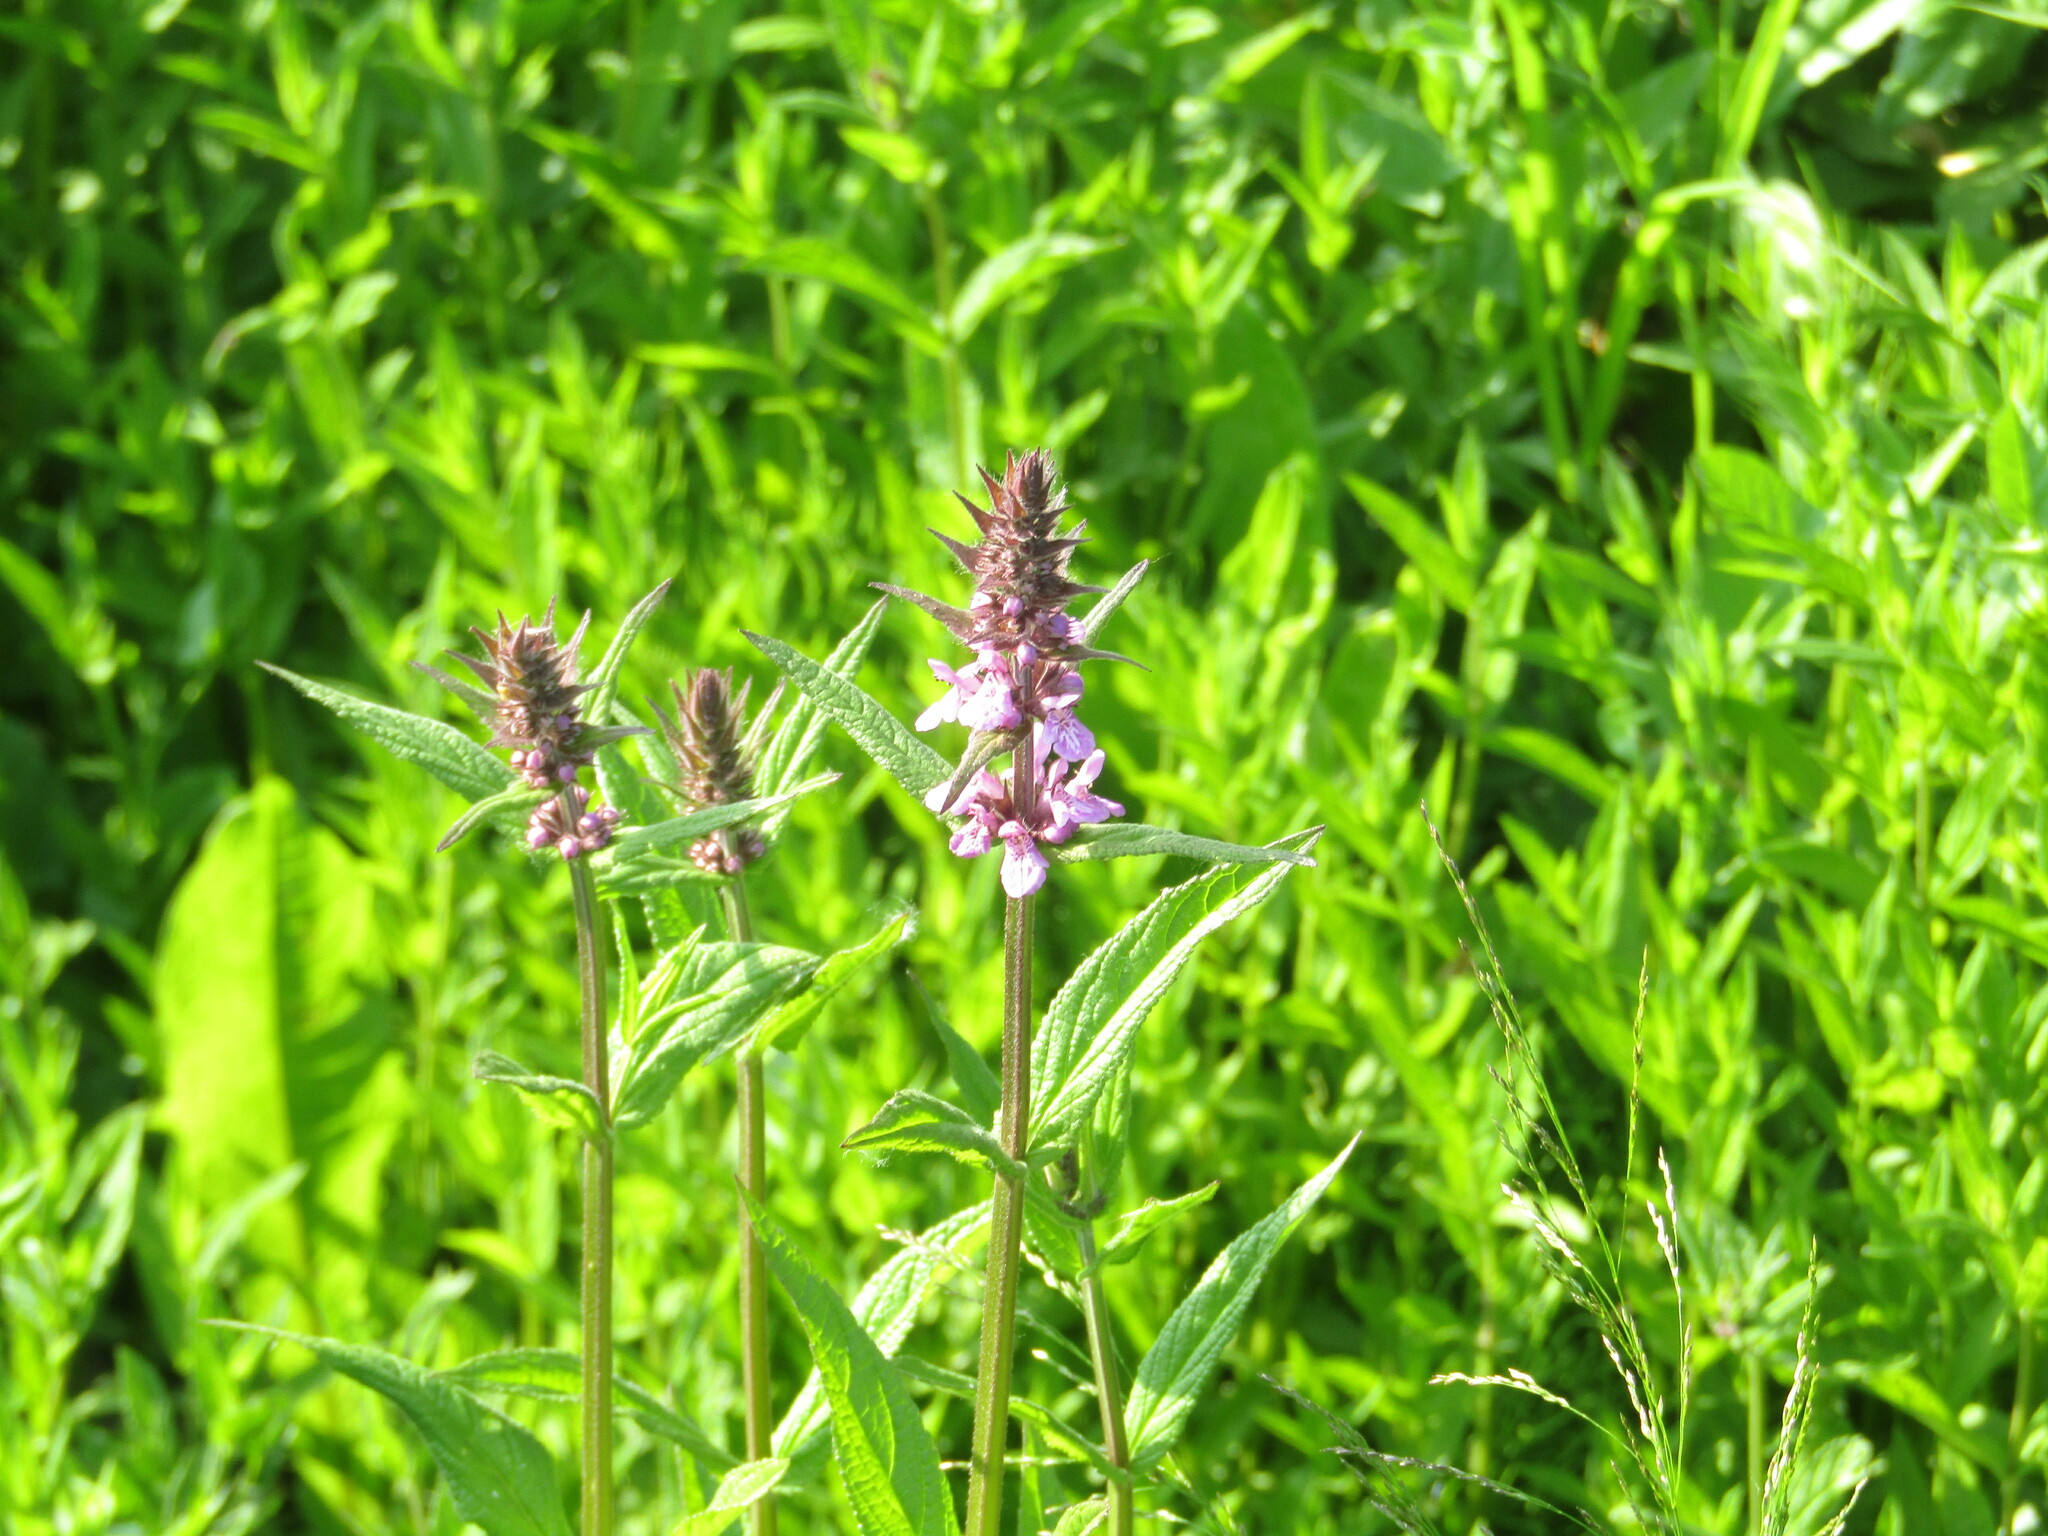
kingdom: Plantae
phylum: Tracheophyta
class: Magnoliopsida
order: Lamiales
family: Lamiaceae
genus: Stachys
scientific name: Stachys palustris
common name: Marsh woundwort
